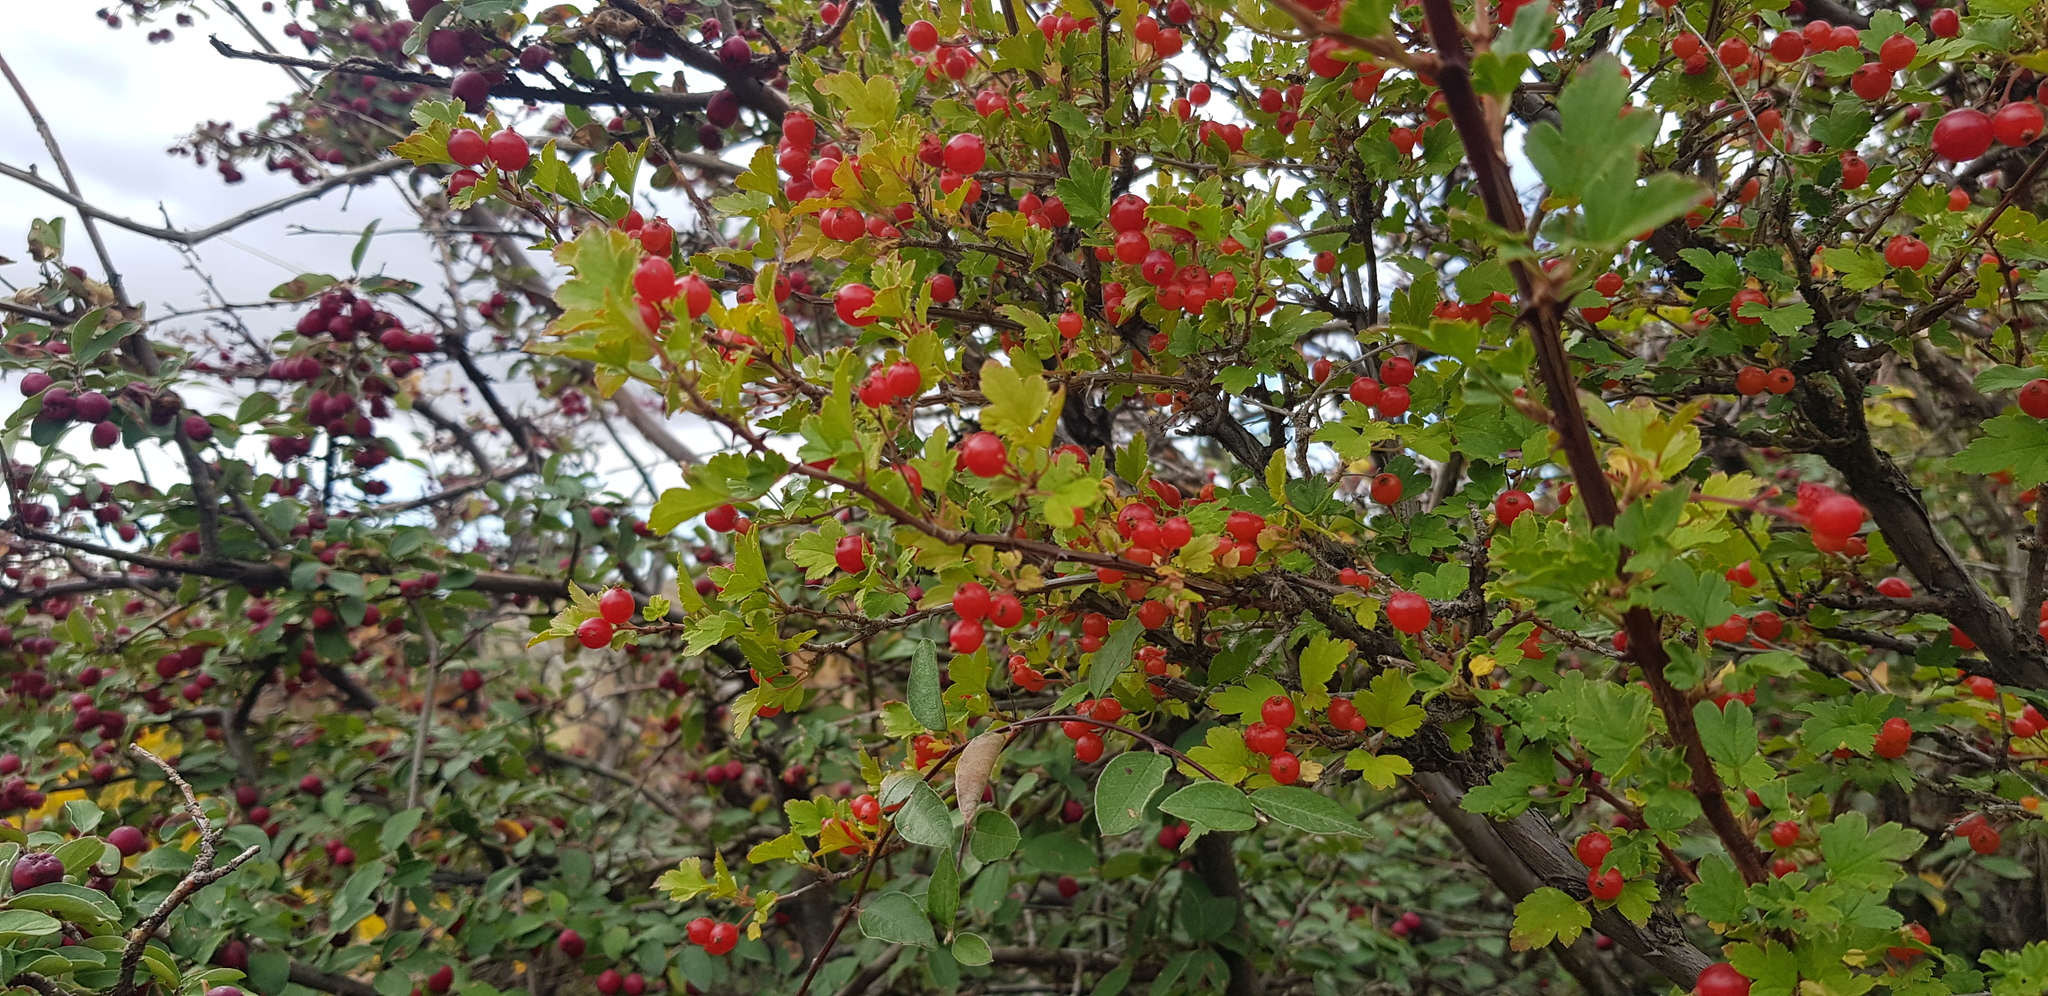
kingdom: Plantae
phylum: Tracheophyta
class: Magnoliopsida
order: Saxifragales
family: Grossulariaceae
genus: Ribes
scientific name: Ribes diacanthum
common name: Siberian currant
